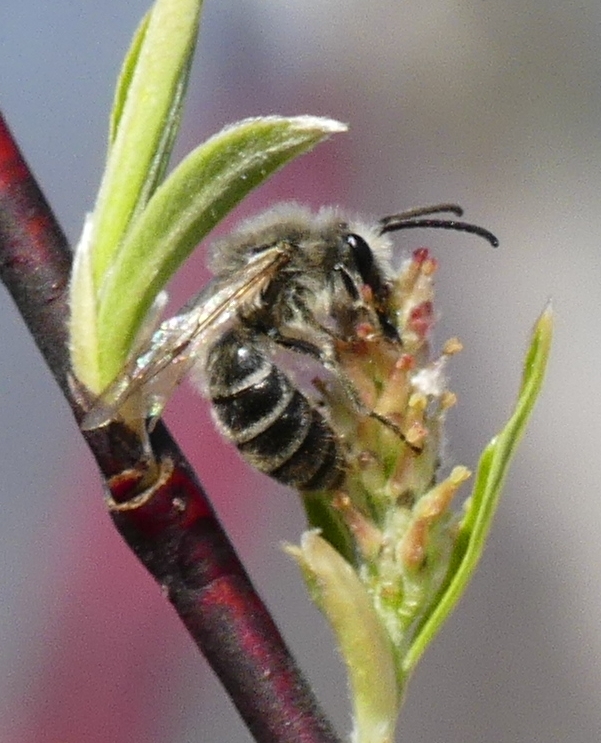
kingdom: Animalia
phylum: Arthropoda
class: Insecta
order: Hymenoptera
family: Colletidae
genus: Colletes
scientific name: Colletes inaequalis
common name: Unequal cellophane bee
